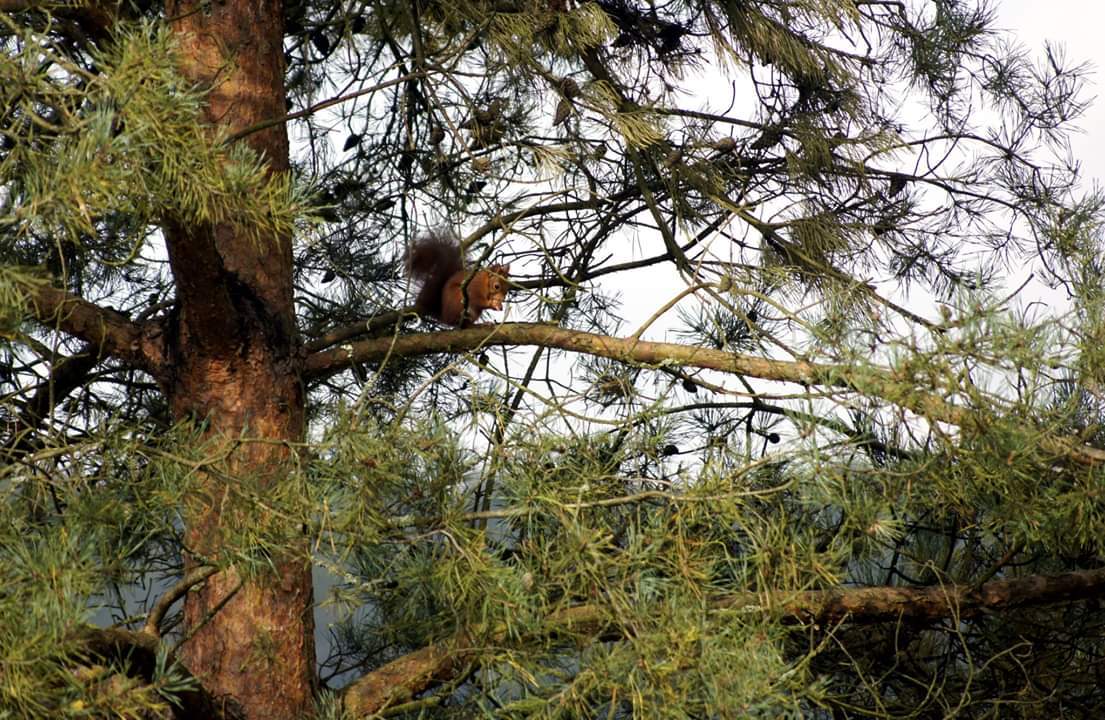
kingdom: Animalia
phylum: Chordata
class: Mammalia
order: Rodentia
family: Sciuridae
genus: Sciurus
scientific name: Sciurus vulgaris
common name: Eurasian red squirrel
